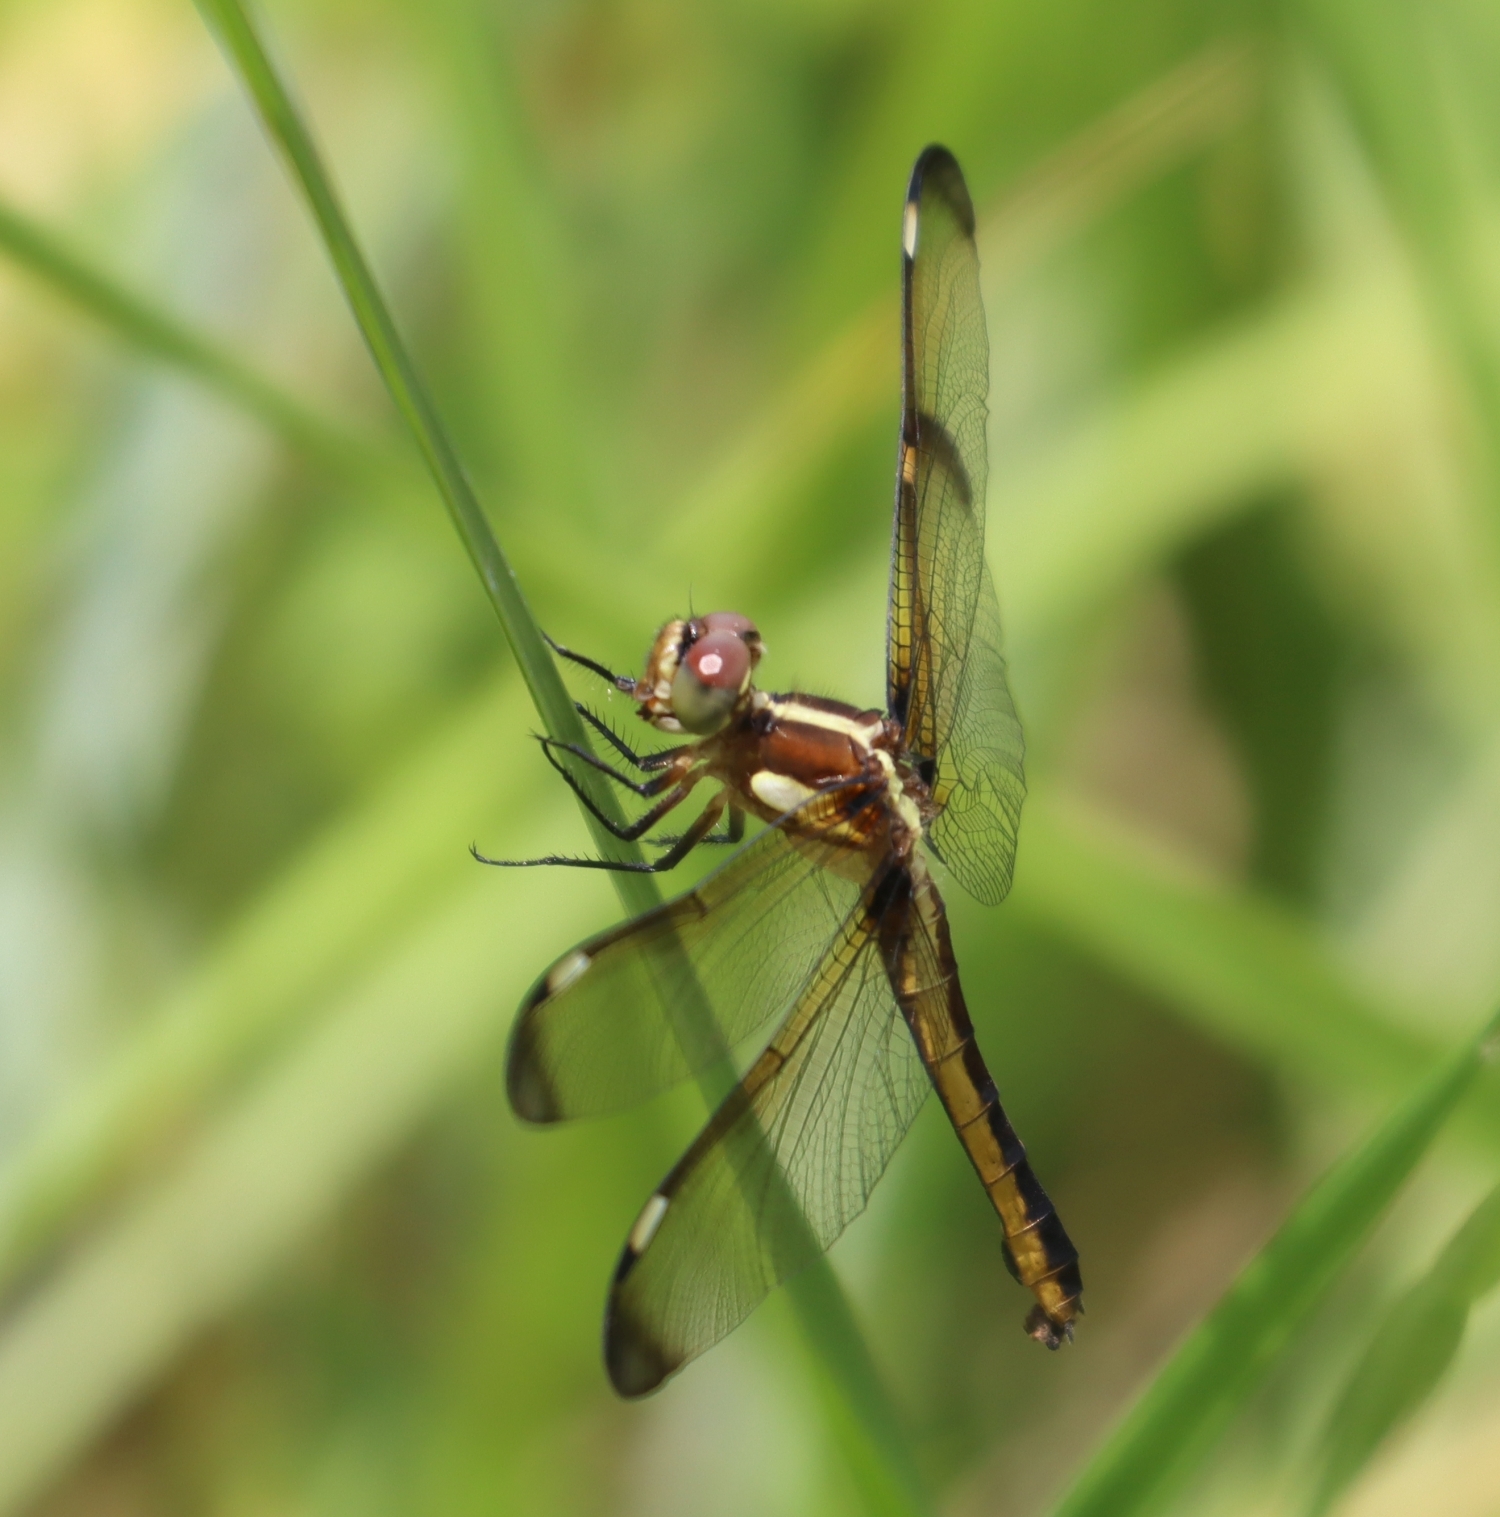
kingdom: Animalia
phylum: Arthropoda
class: Insecta
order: Odonata
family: Libellulidae
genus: Libellula
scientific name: Libellula cyanea
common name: Spangled skimmer
